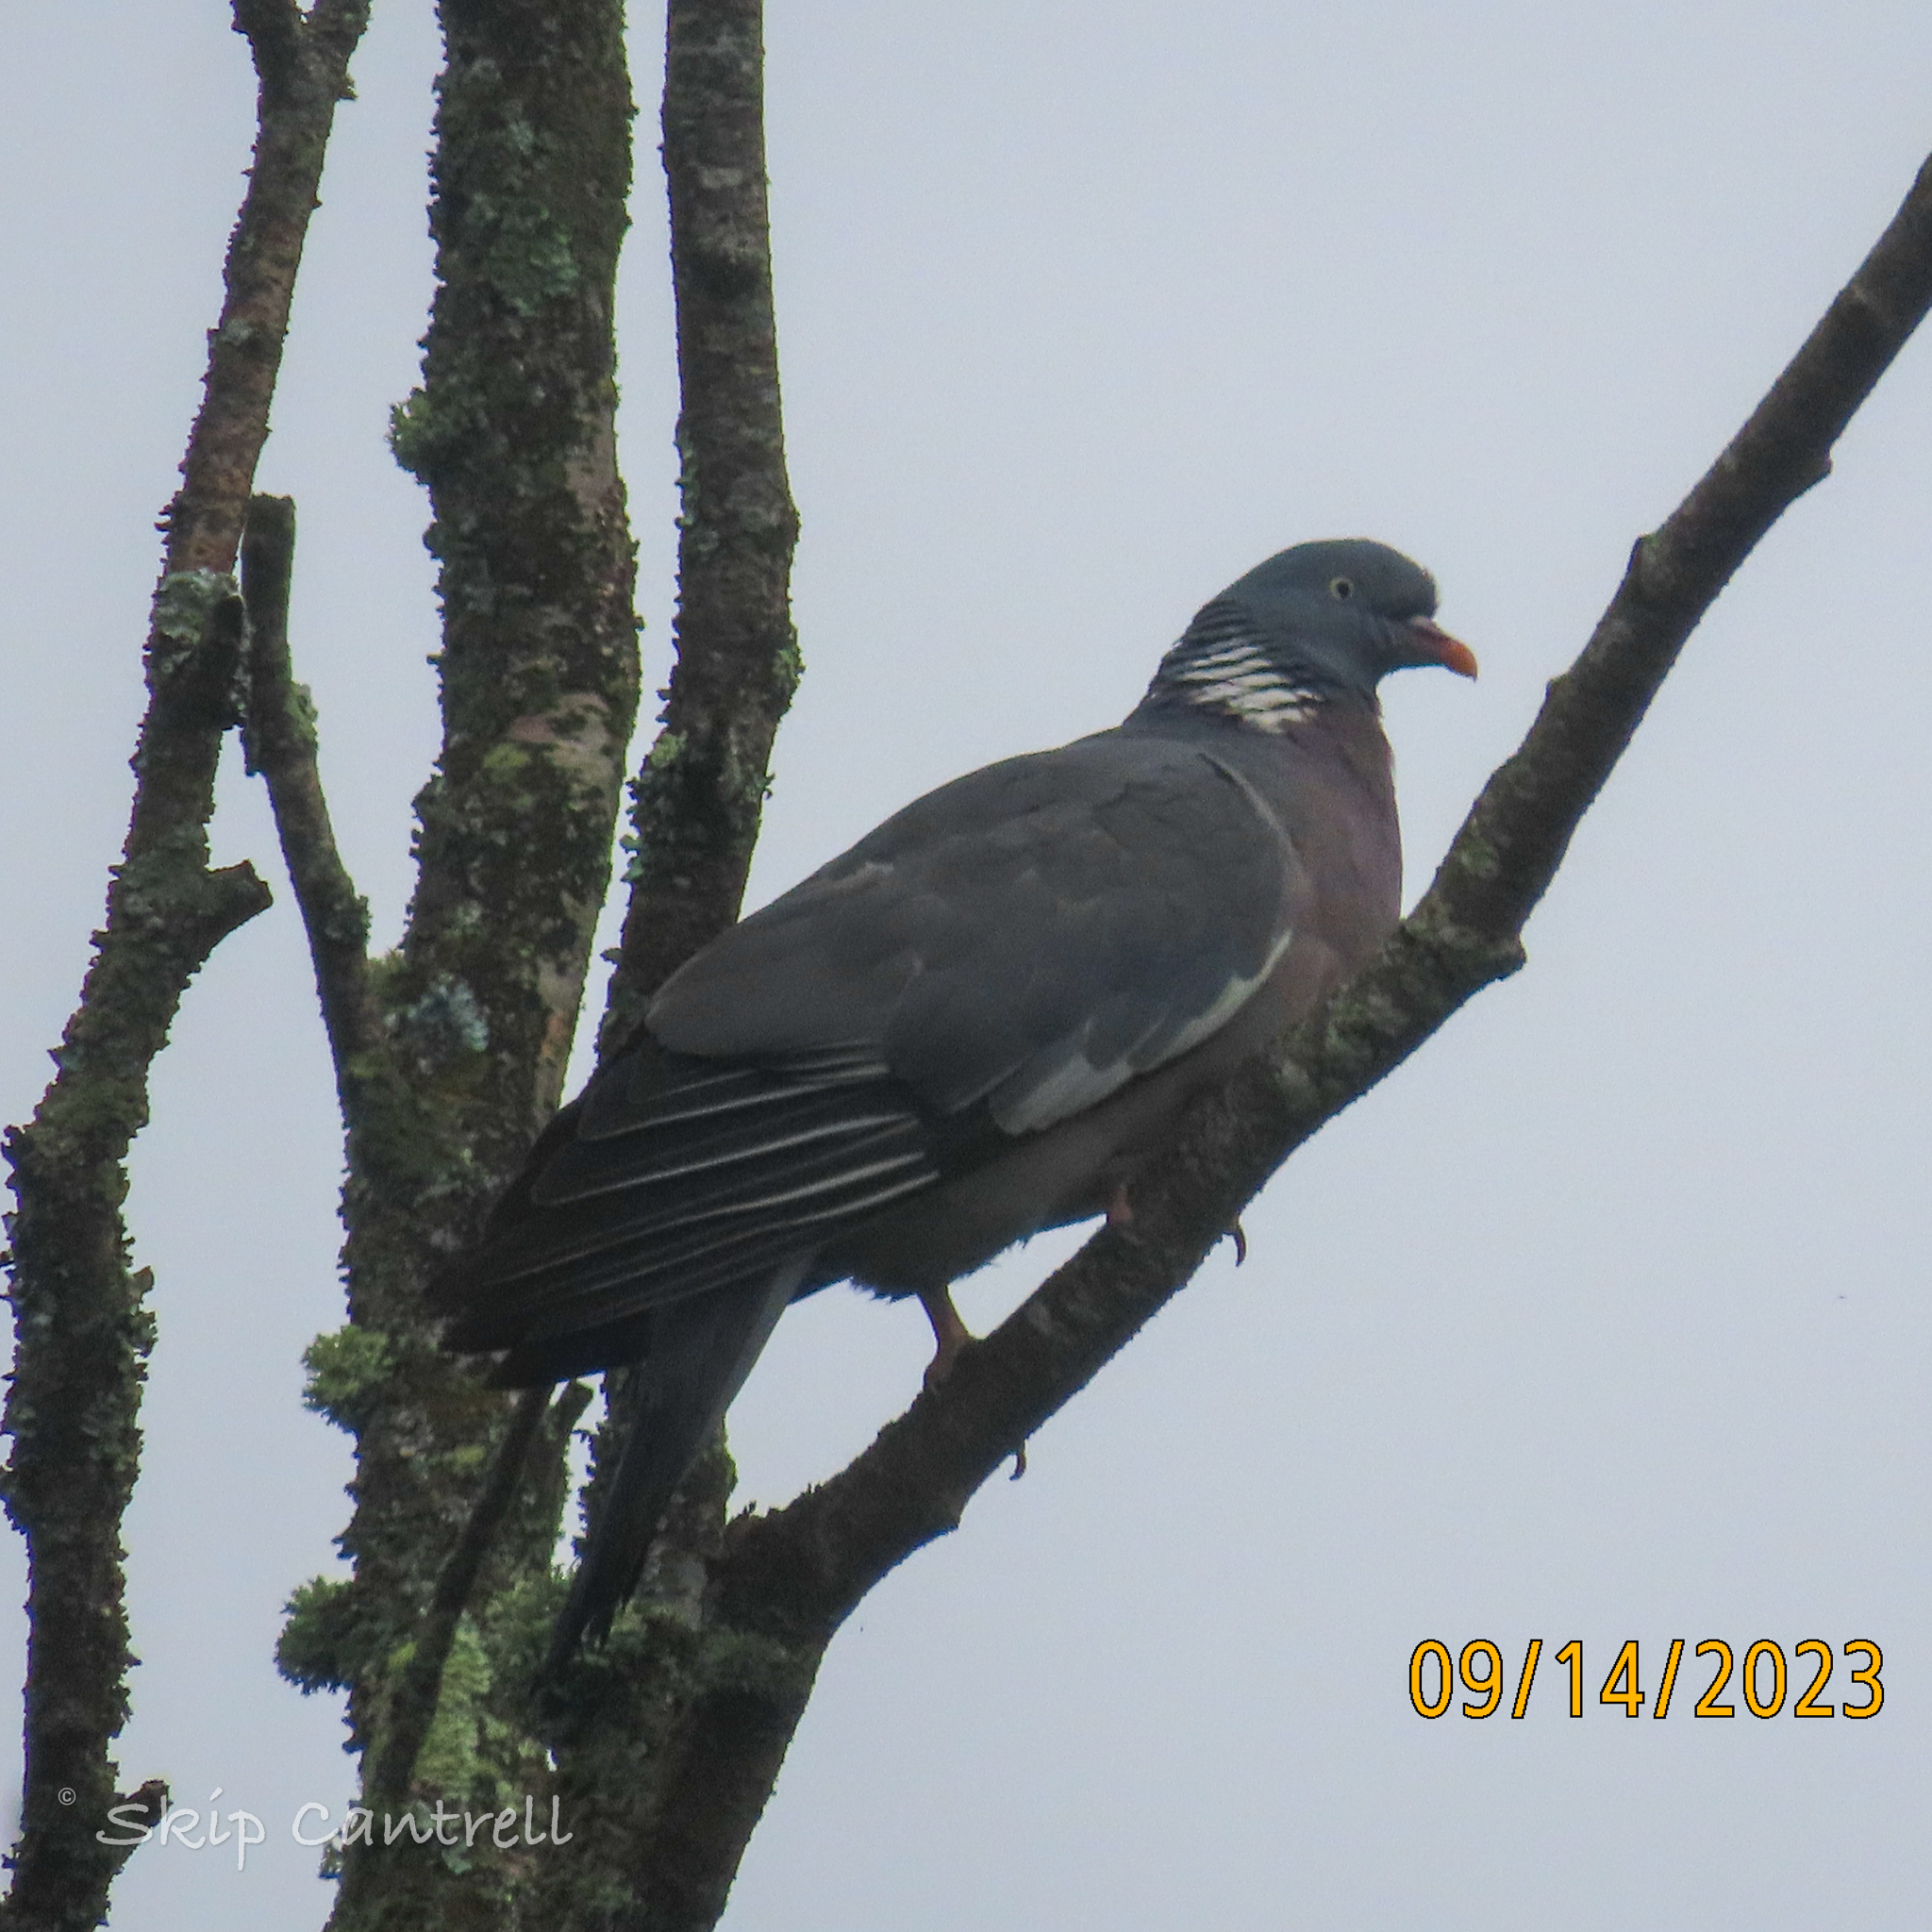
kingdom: Animalia
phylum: Chordata
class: Aves
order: Columbiformes
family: Columbidae
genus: Columba
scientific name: Columba palumbus
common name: Common wood pigeon
